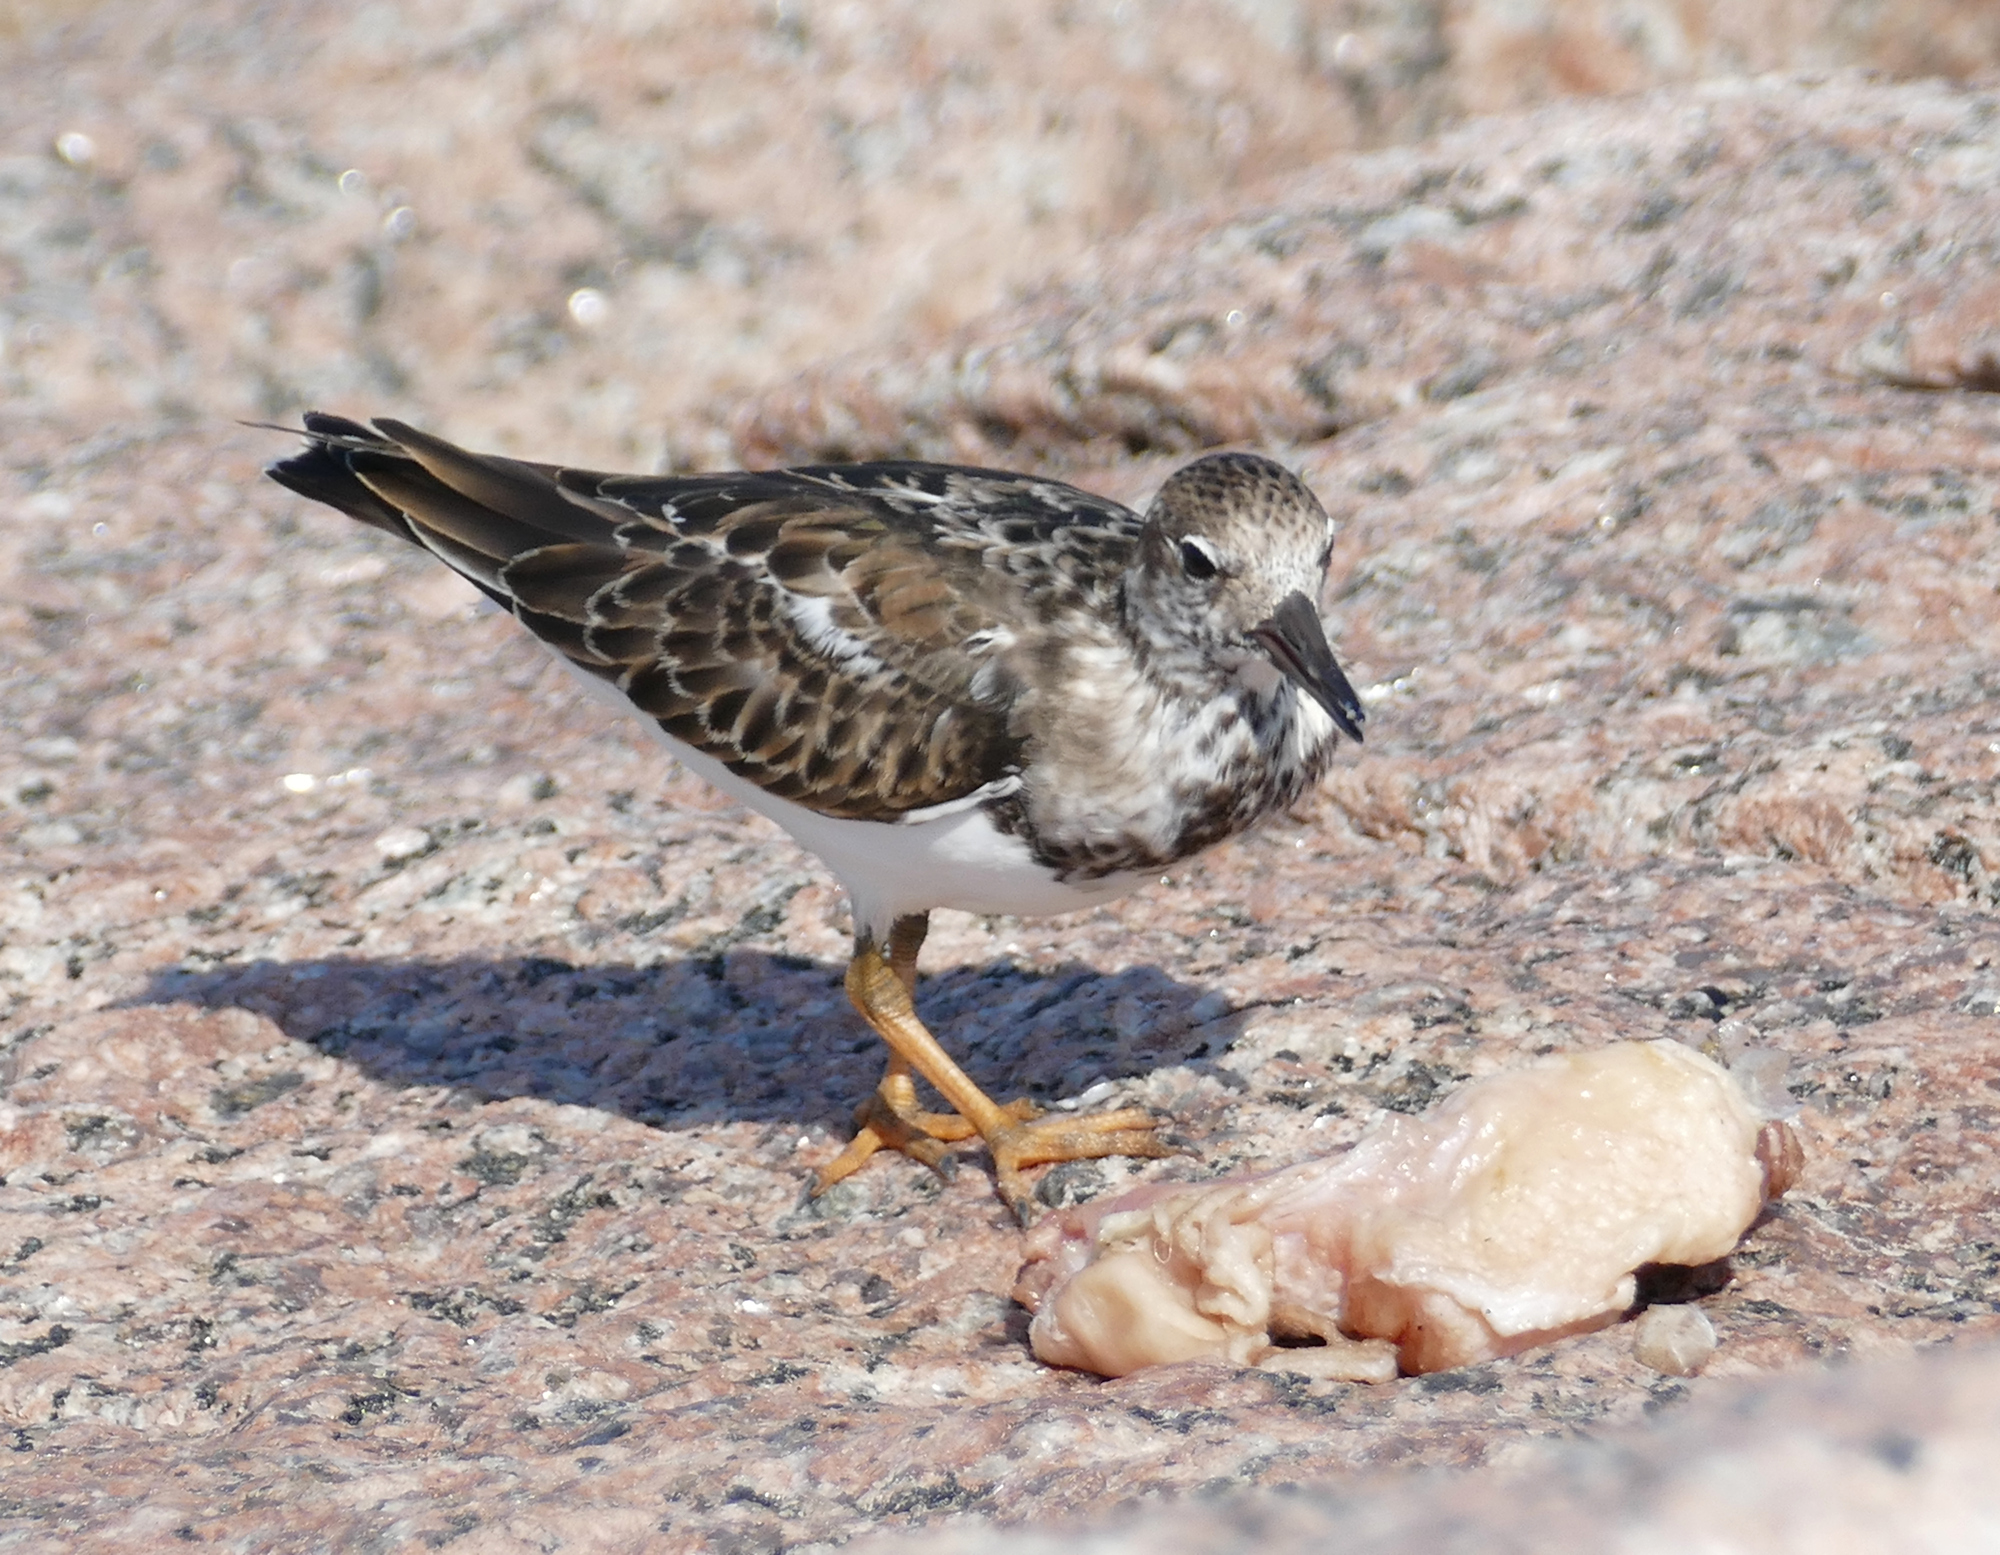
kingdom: Animalia
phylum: Chordata
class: Aves
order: Charadriiformes
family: Scolopacidae
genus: Arenaria
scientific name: Arenaria interpres
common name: Ruddy turnstone
